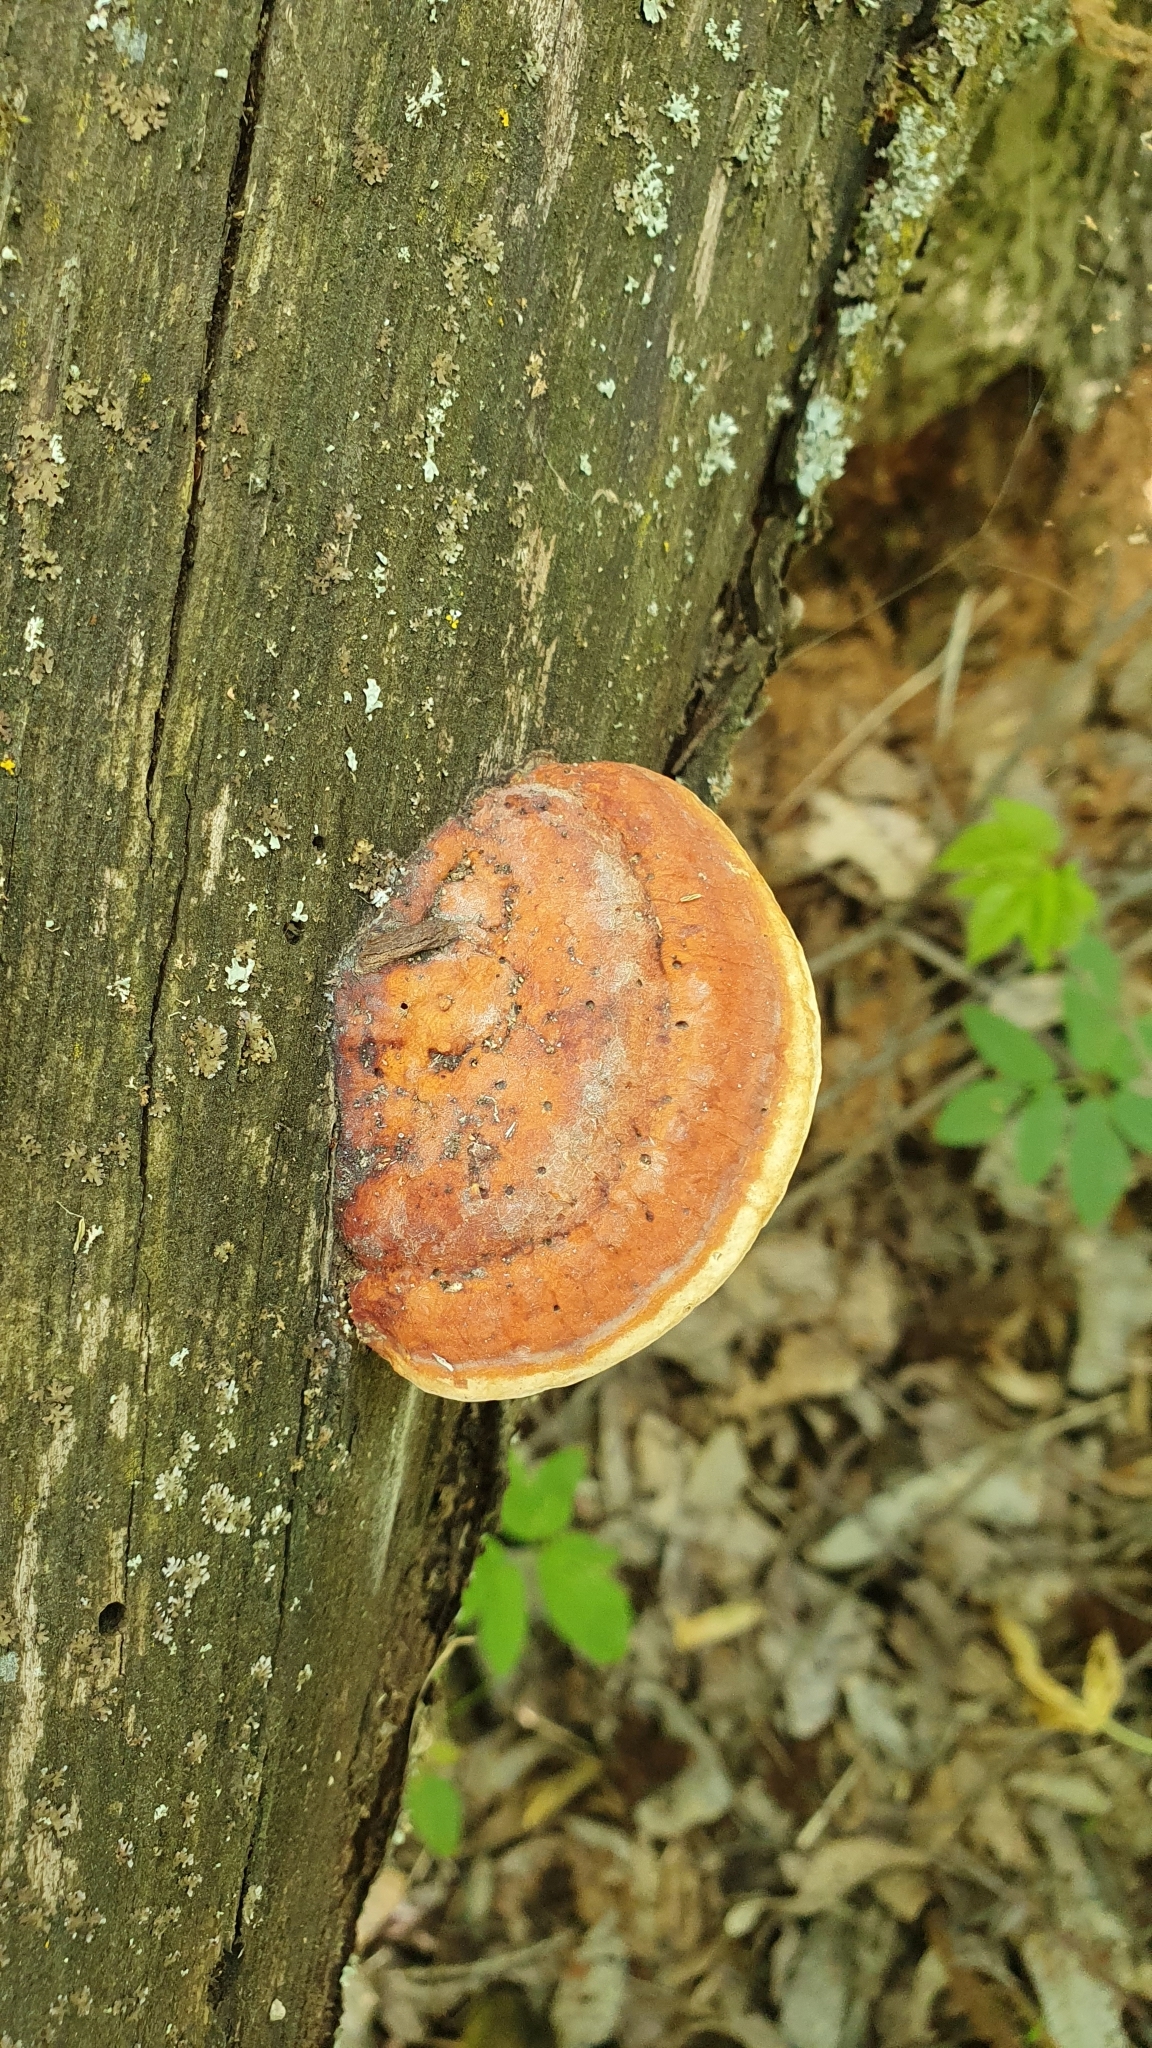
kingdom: Fungi
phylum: Basidiomycota
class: Agaricomycetes
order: Polyporales
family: Fomitopsidaceae
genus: Fomitopsis
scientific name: Fomitopsis pinicola
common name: Red-belted bracket
